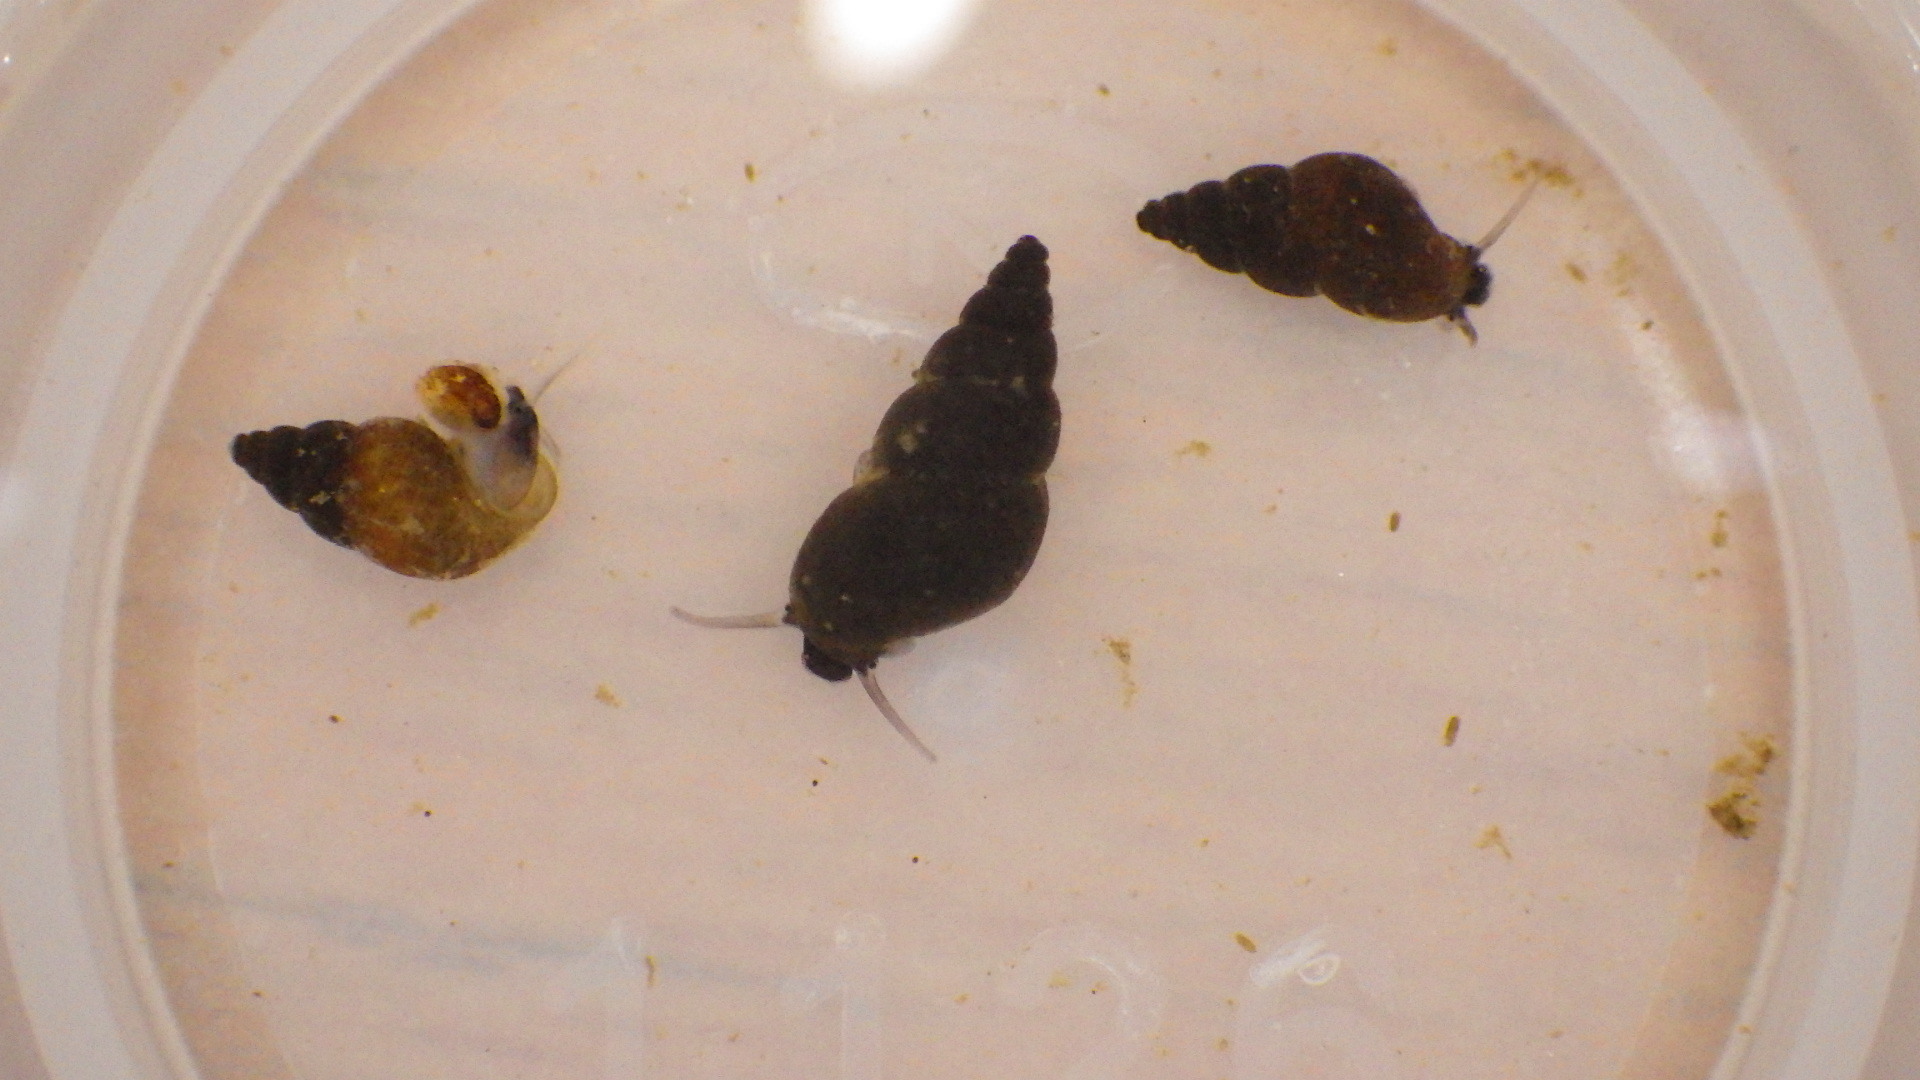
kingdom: Animalia
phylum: Mollusca
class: Gastropoda
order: Littorinimorpha
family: Tateidae
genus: Potamopyrgus
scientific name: Potamopyrgus antipodarum
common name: Jenkins' spire snail
